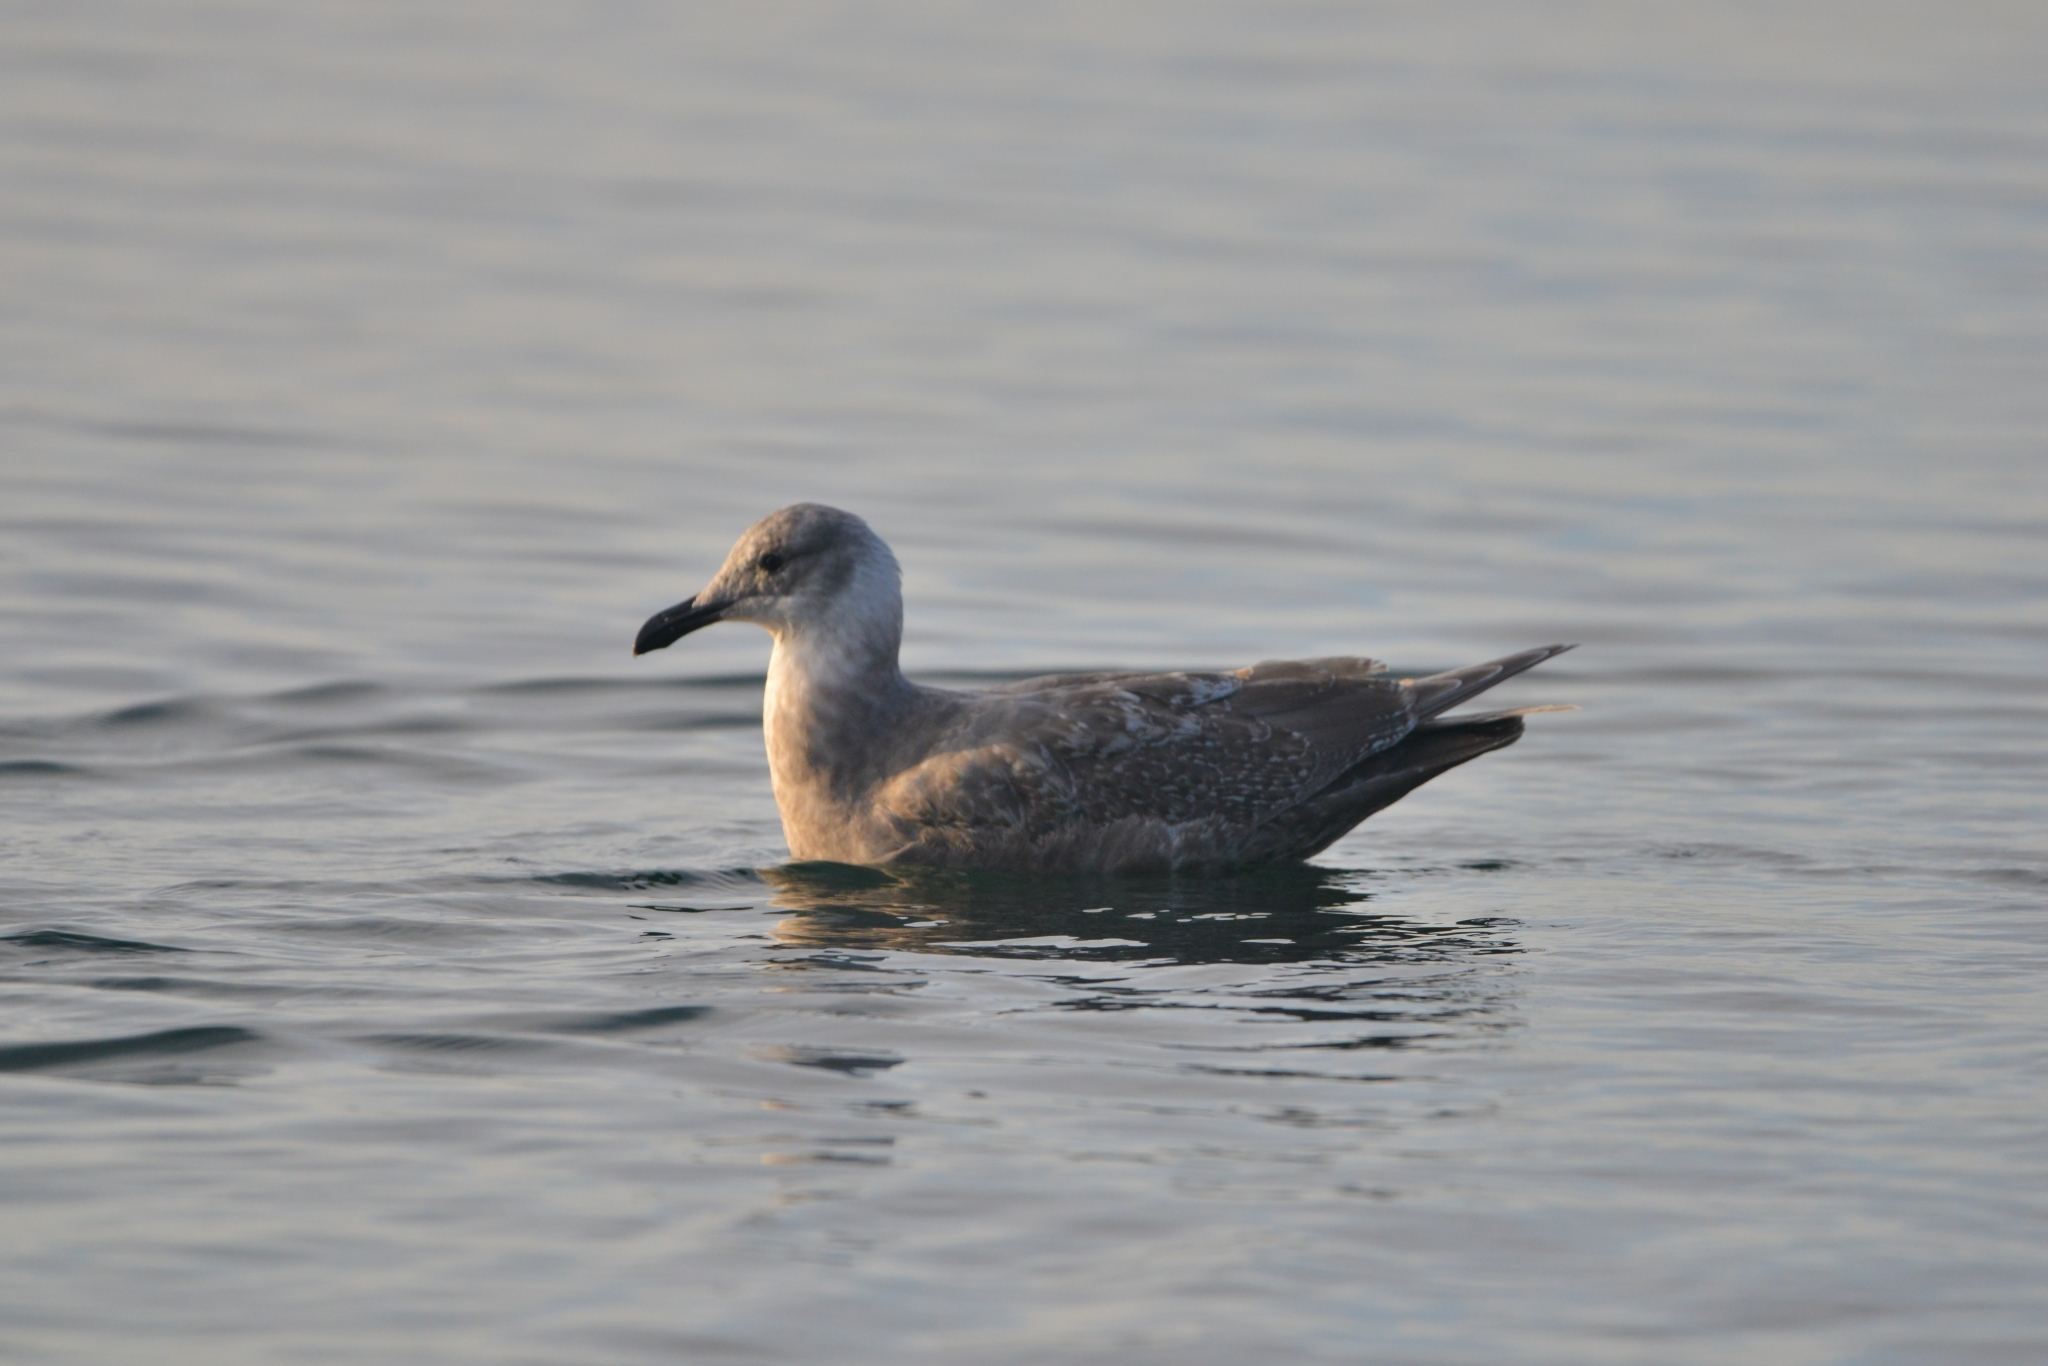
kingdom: Animalia
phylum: Chordata
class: Aves
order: Charadriiformes
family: Laridae
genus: Larus
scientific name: Larus glaucescens
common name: Glaucous-winged gull
